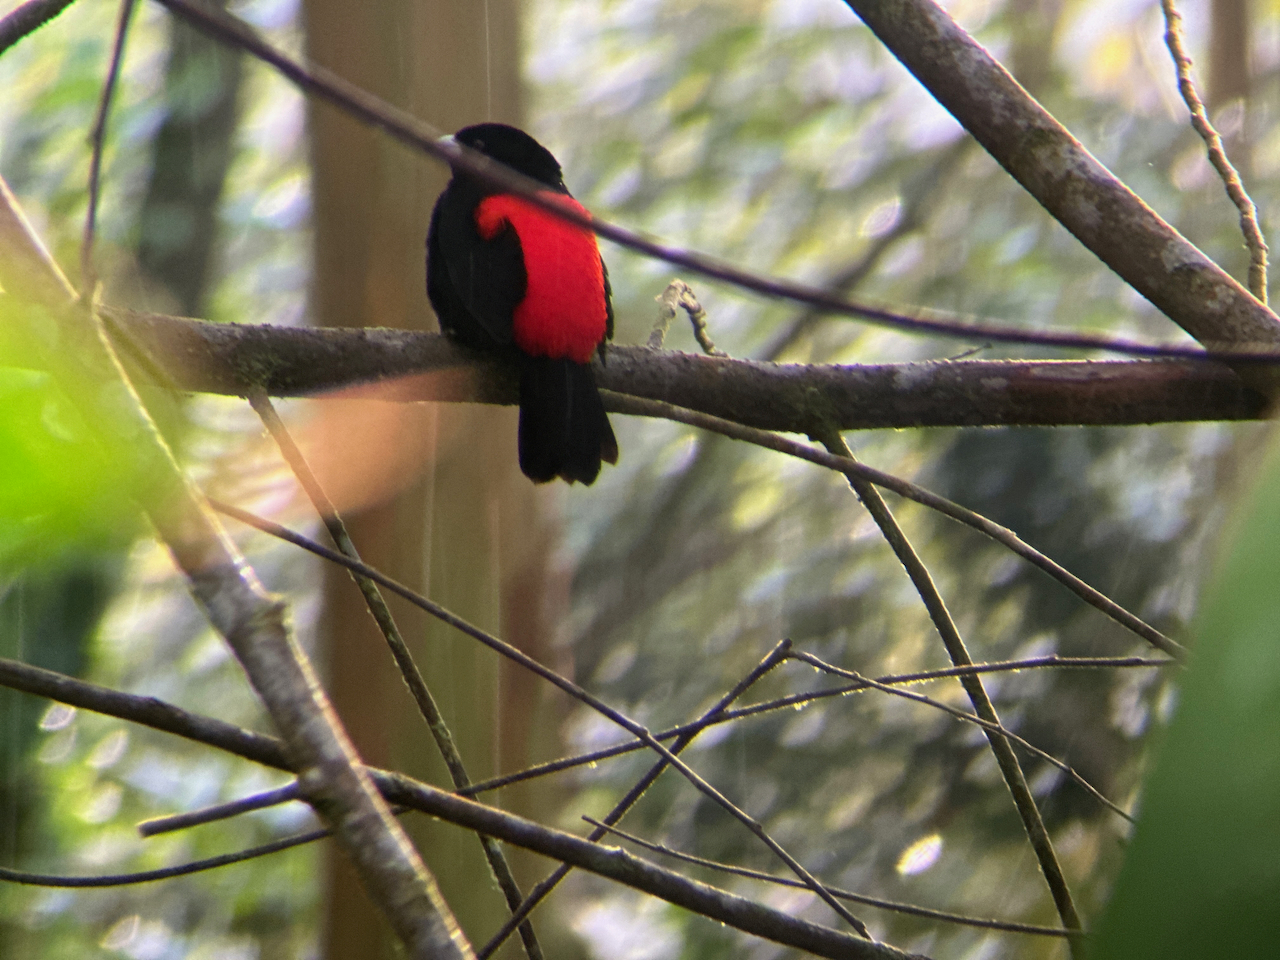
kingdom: Animalia
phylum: Chordata
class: Aves
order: Passeriformes
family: Thraupidae
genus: Ramphocelus
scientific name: Ramphocelus passerinii
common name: Passerini's tanager
